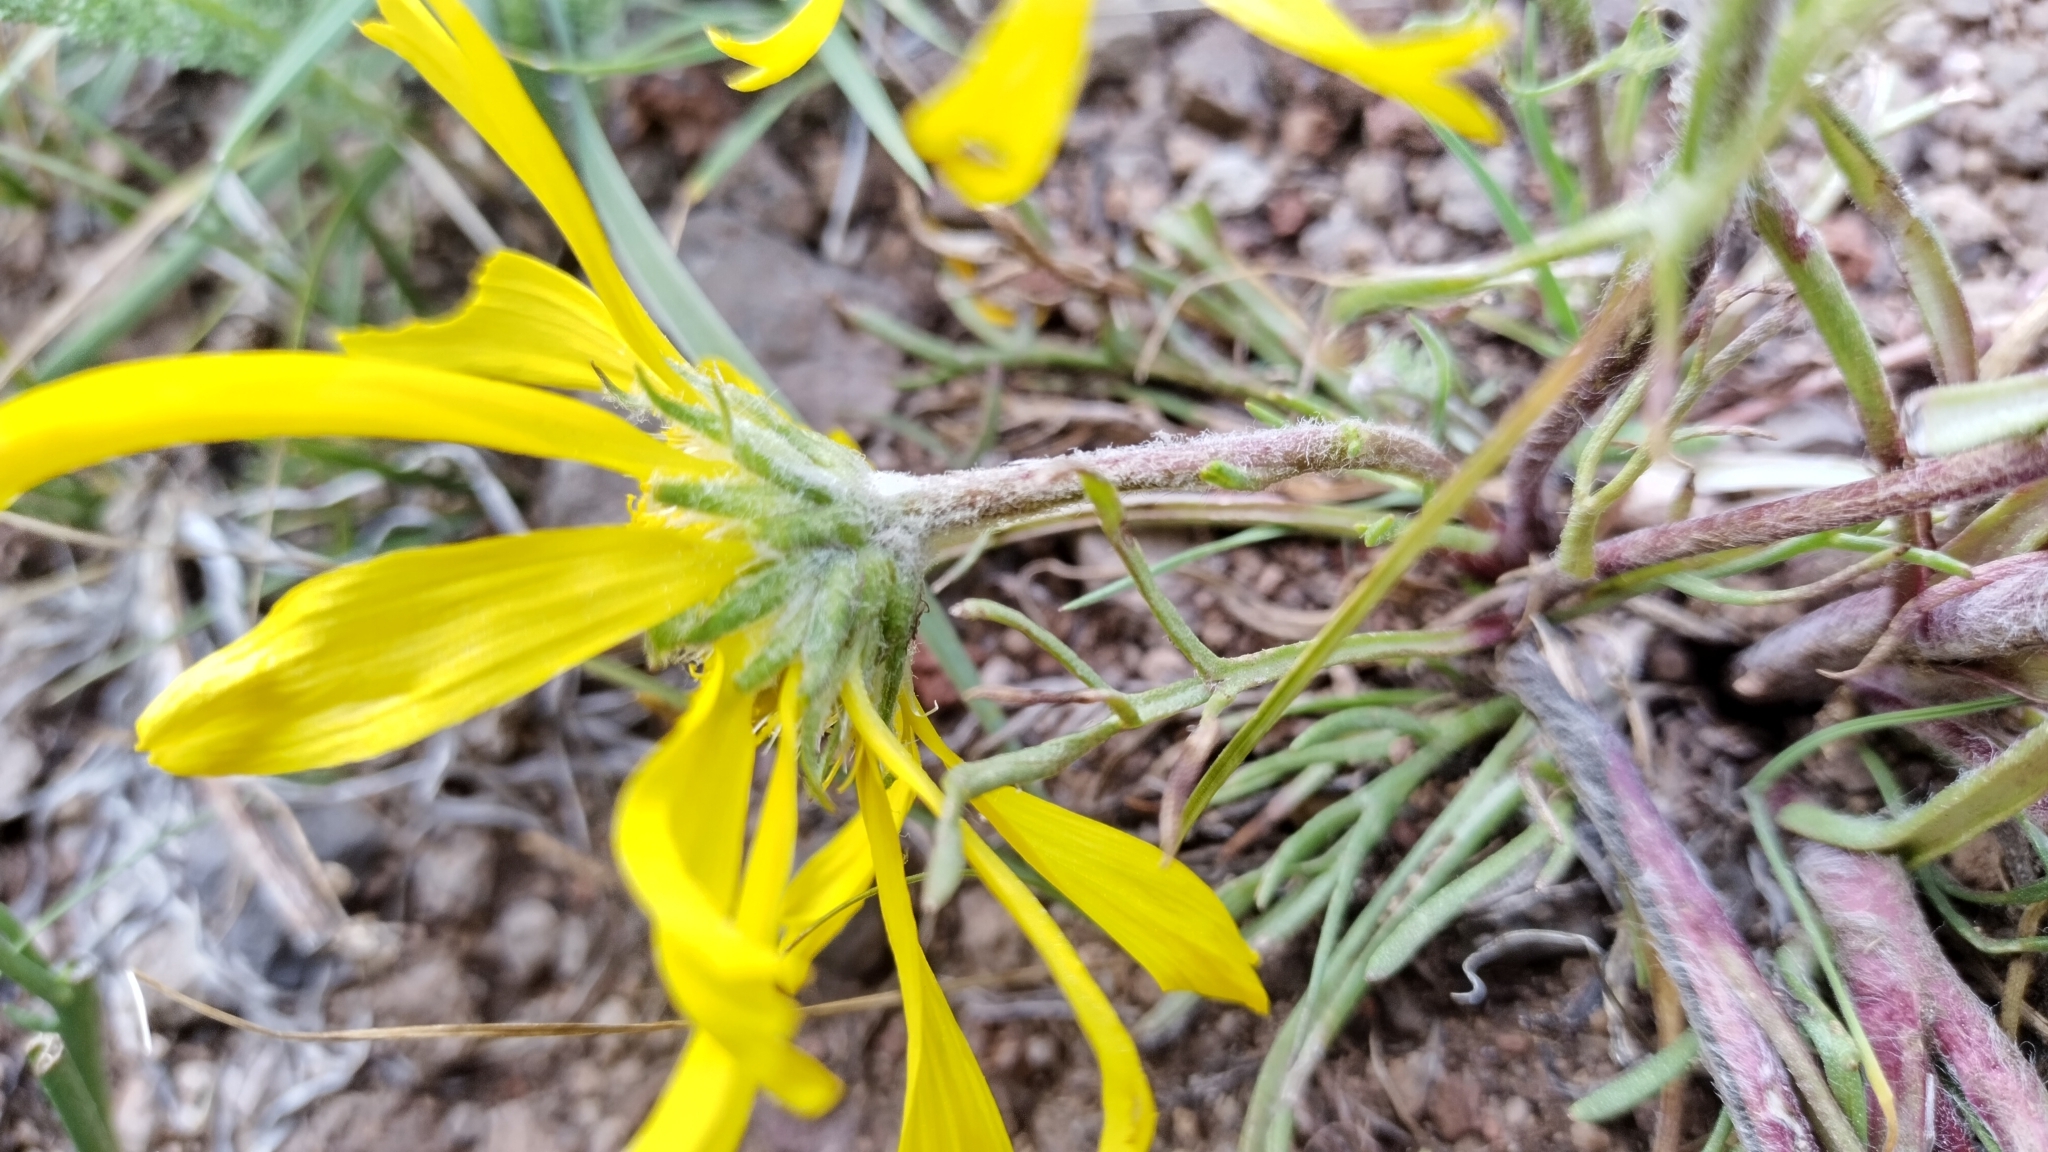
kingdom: Plantae
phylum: Tracheophyta
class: Magnoliopsida
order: Asterales
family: Asteraceae
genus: Hymenoxys
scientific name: Hymenoxys grandiflora
